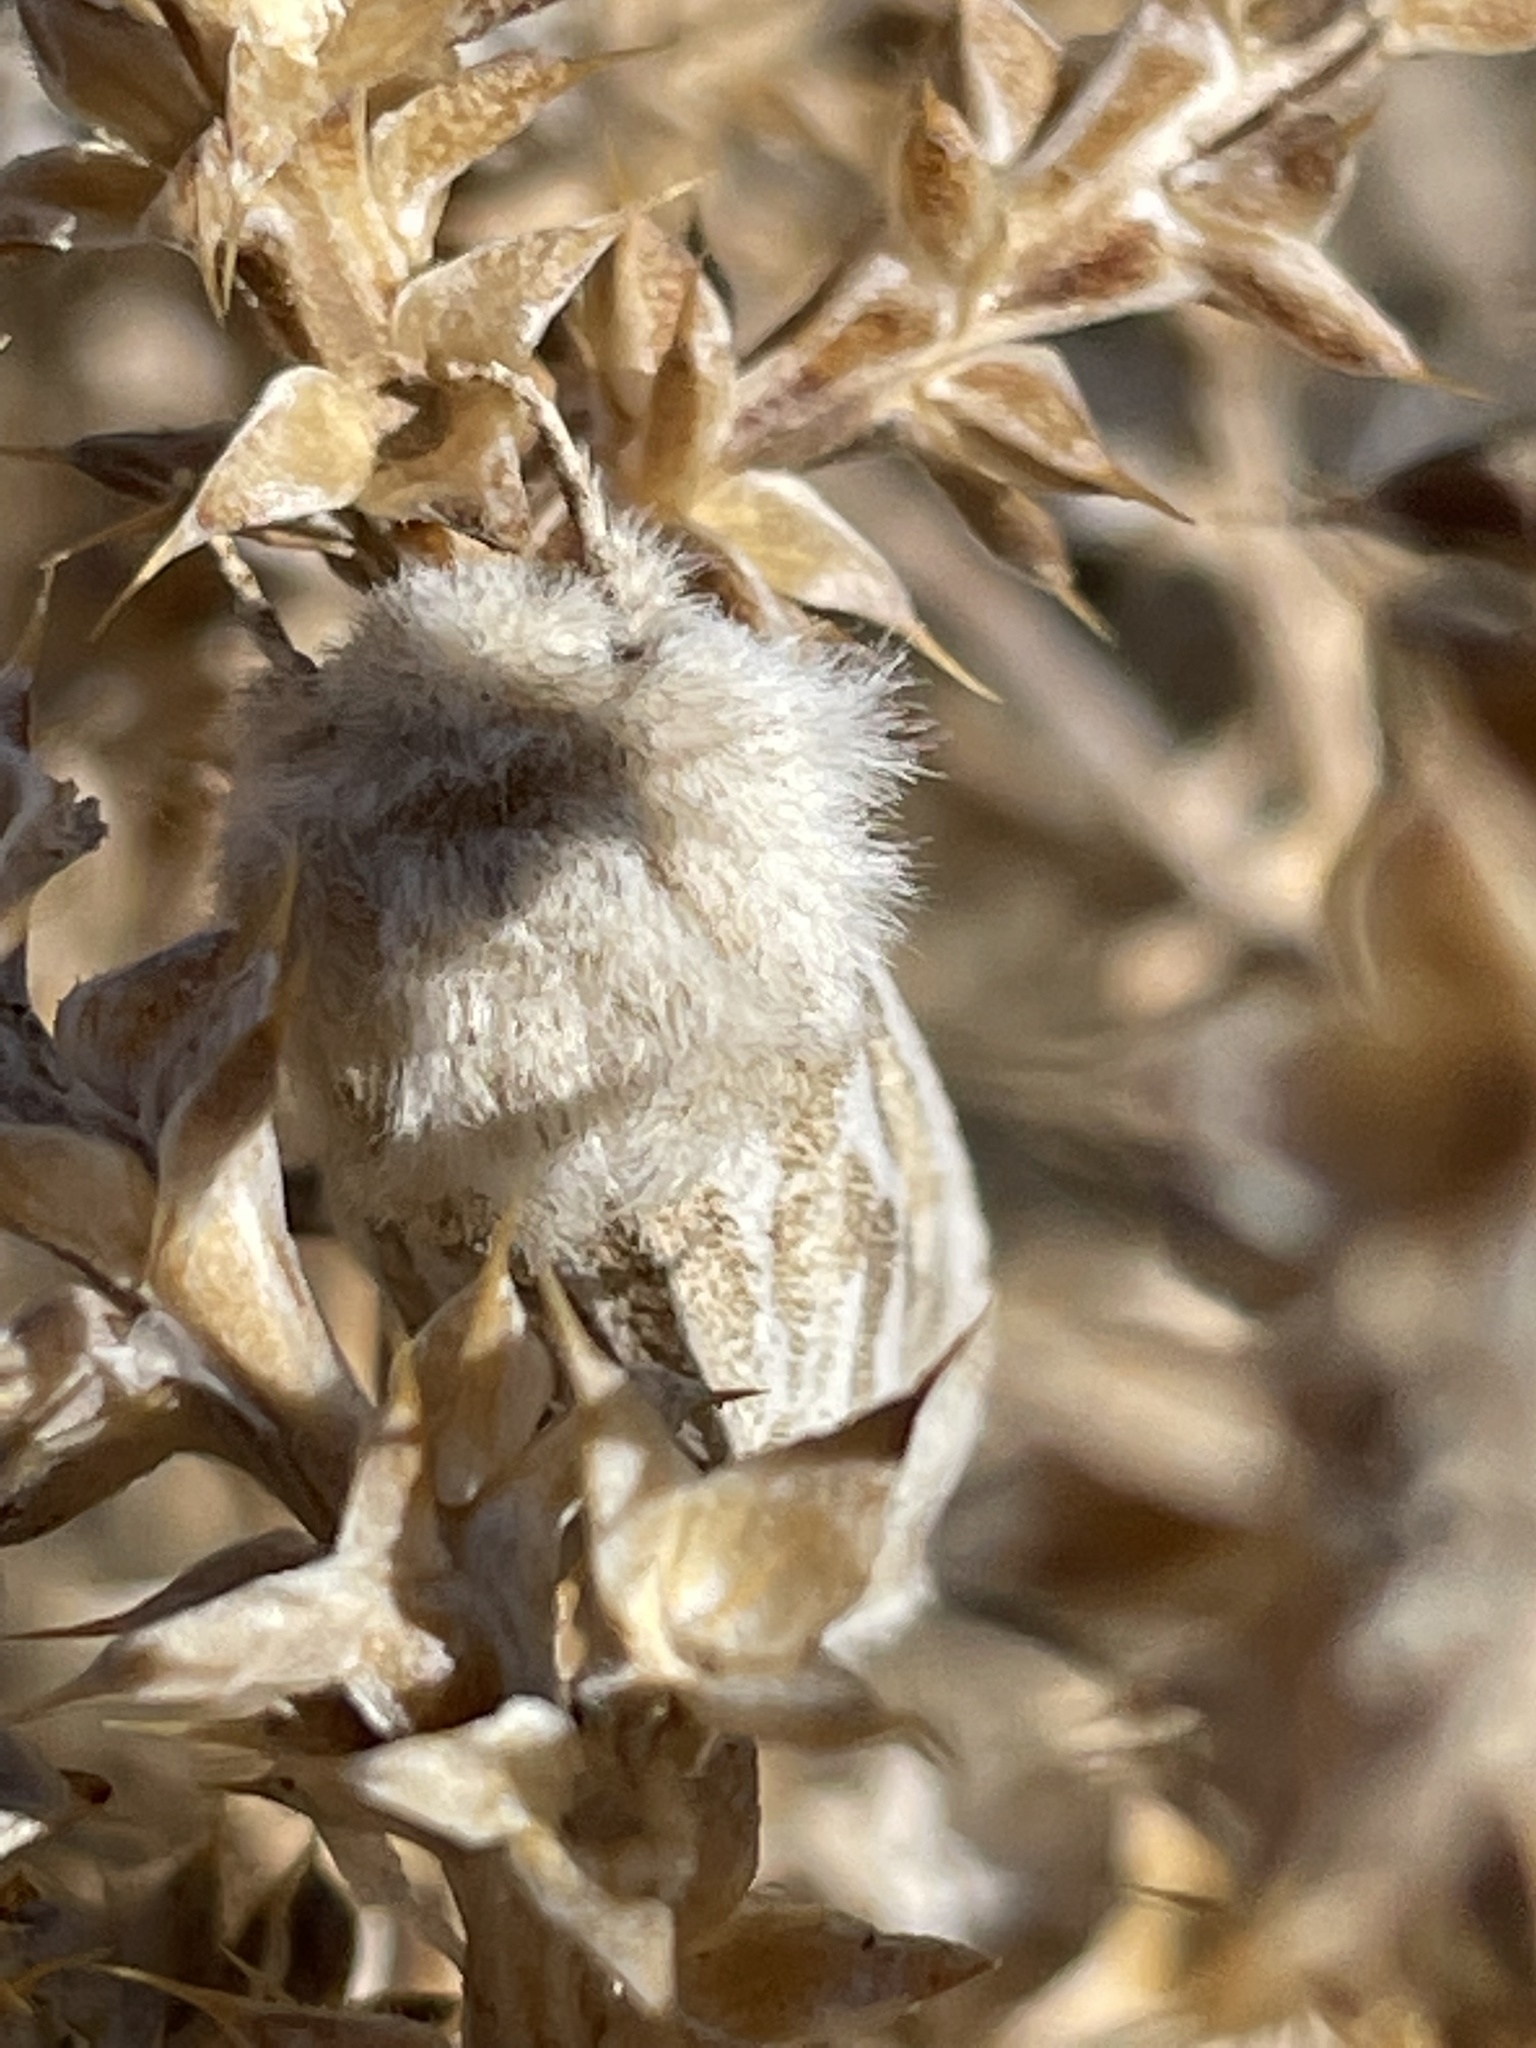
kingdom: Animalia
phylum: Arthropoda
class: Insecta
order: Lepidoptera
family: Cossidae
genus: Comadia
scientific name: Comadia henrici
